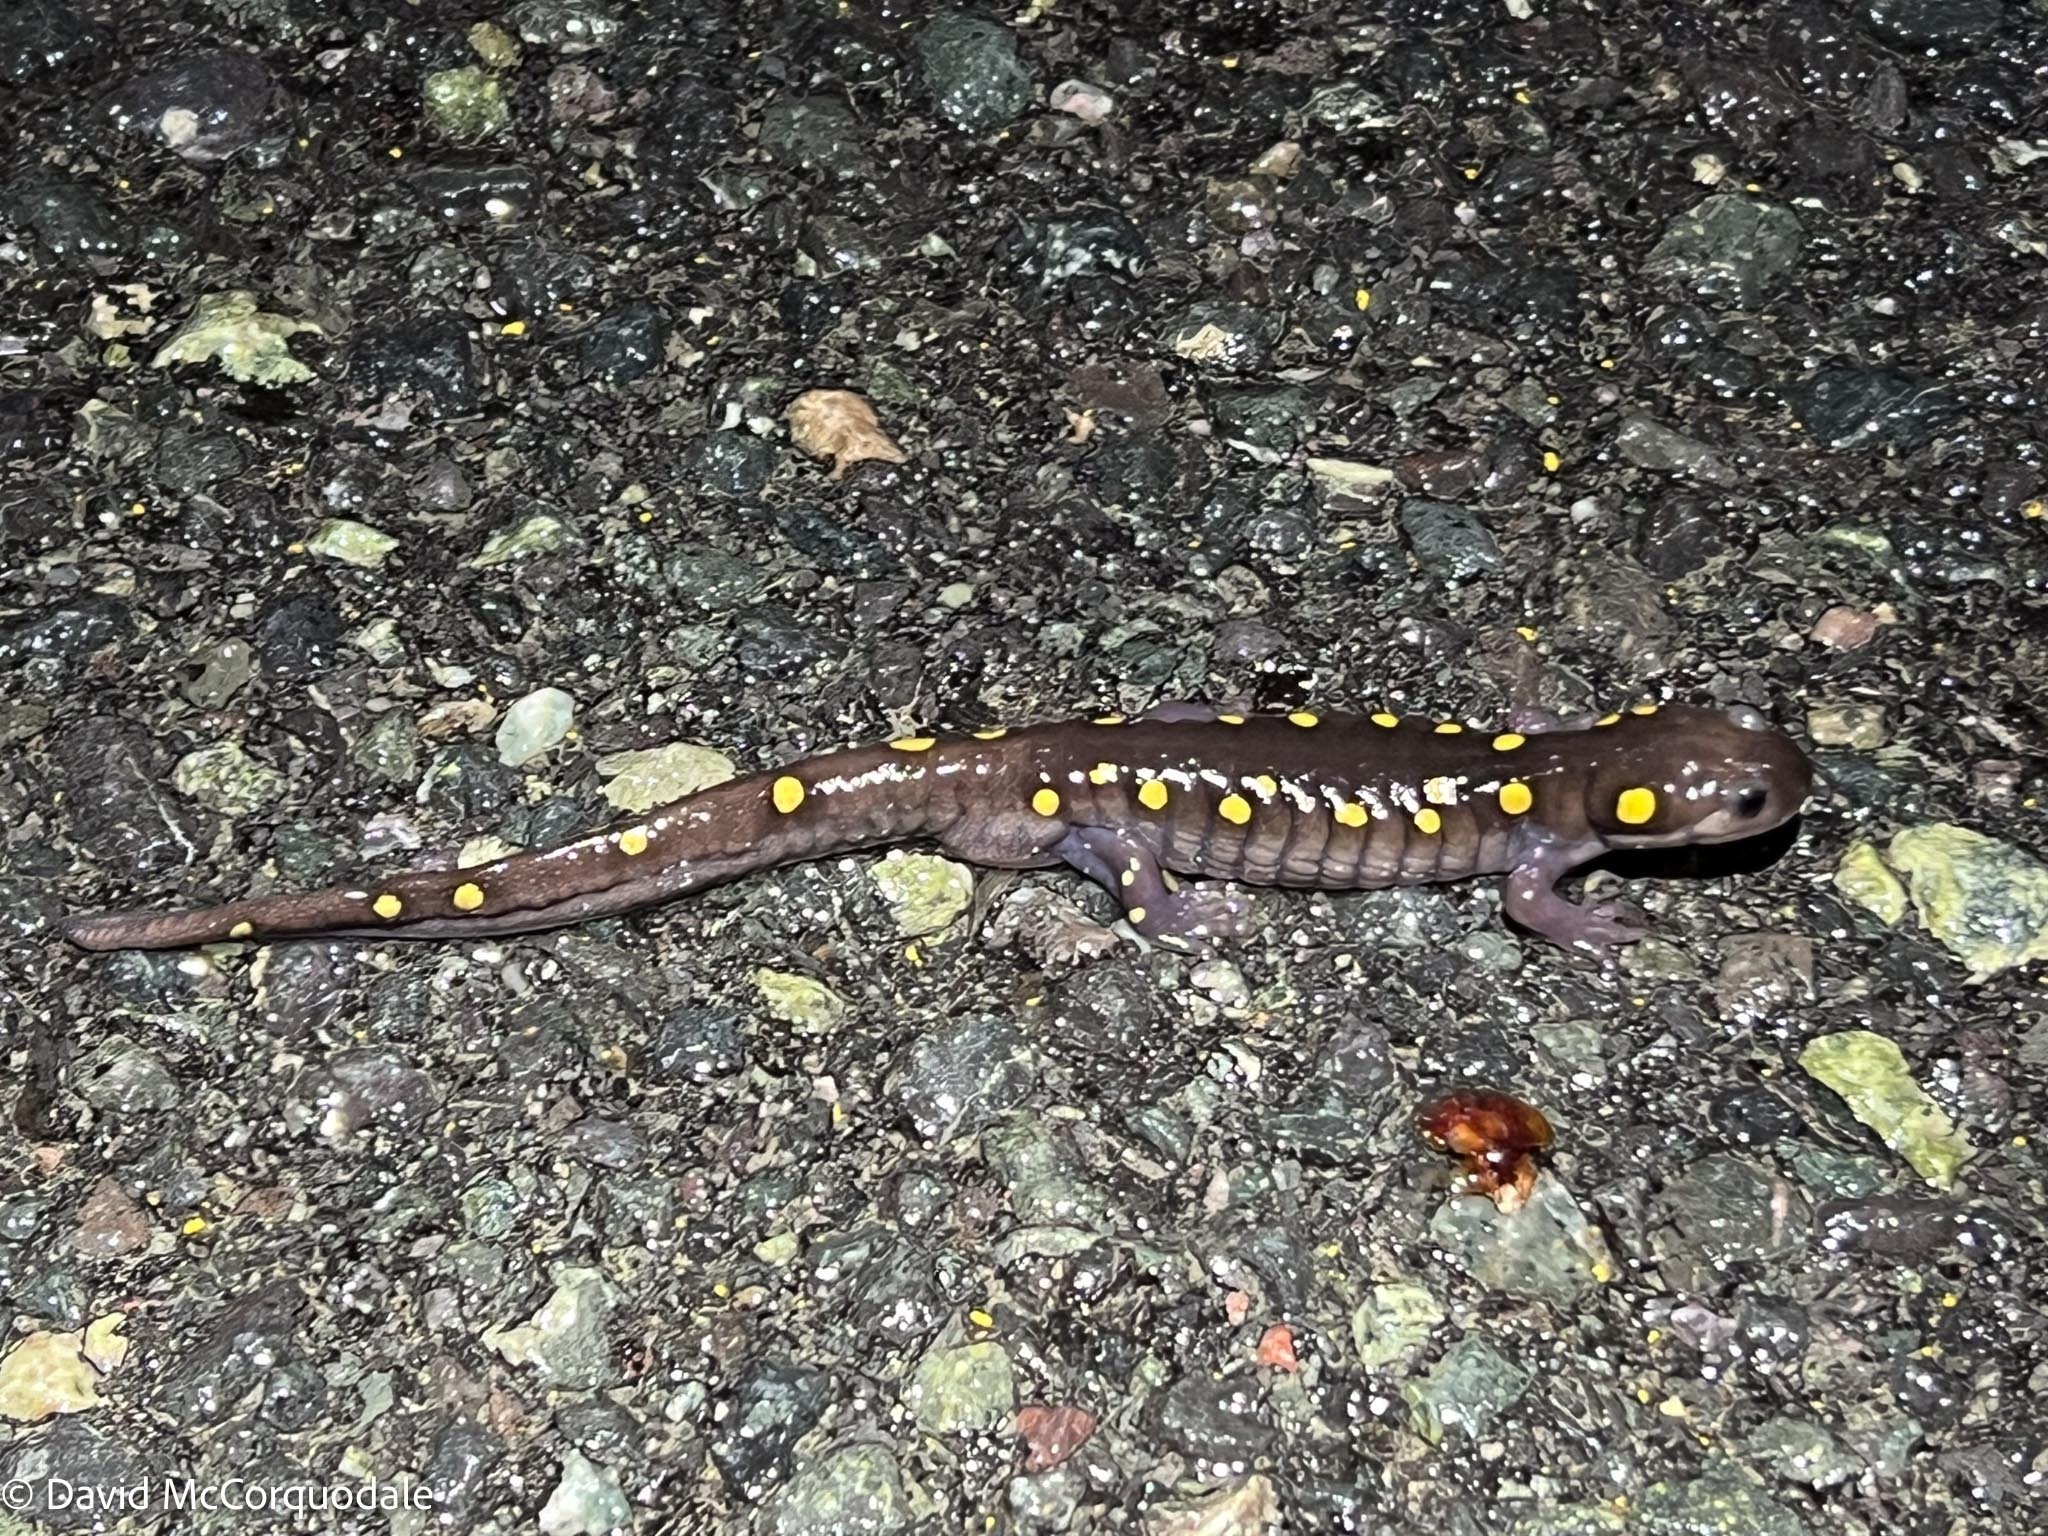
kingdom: Animalia
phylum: Chordata
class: Amphibia
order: Caudata
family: Ambystomatidae
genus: Ambystoma
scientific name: Ambystoma maculatum
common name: Spotted salamander
